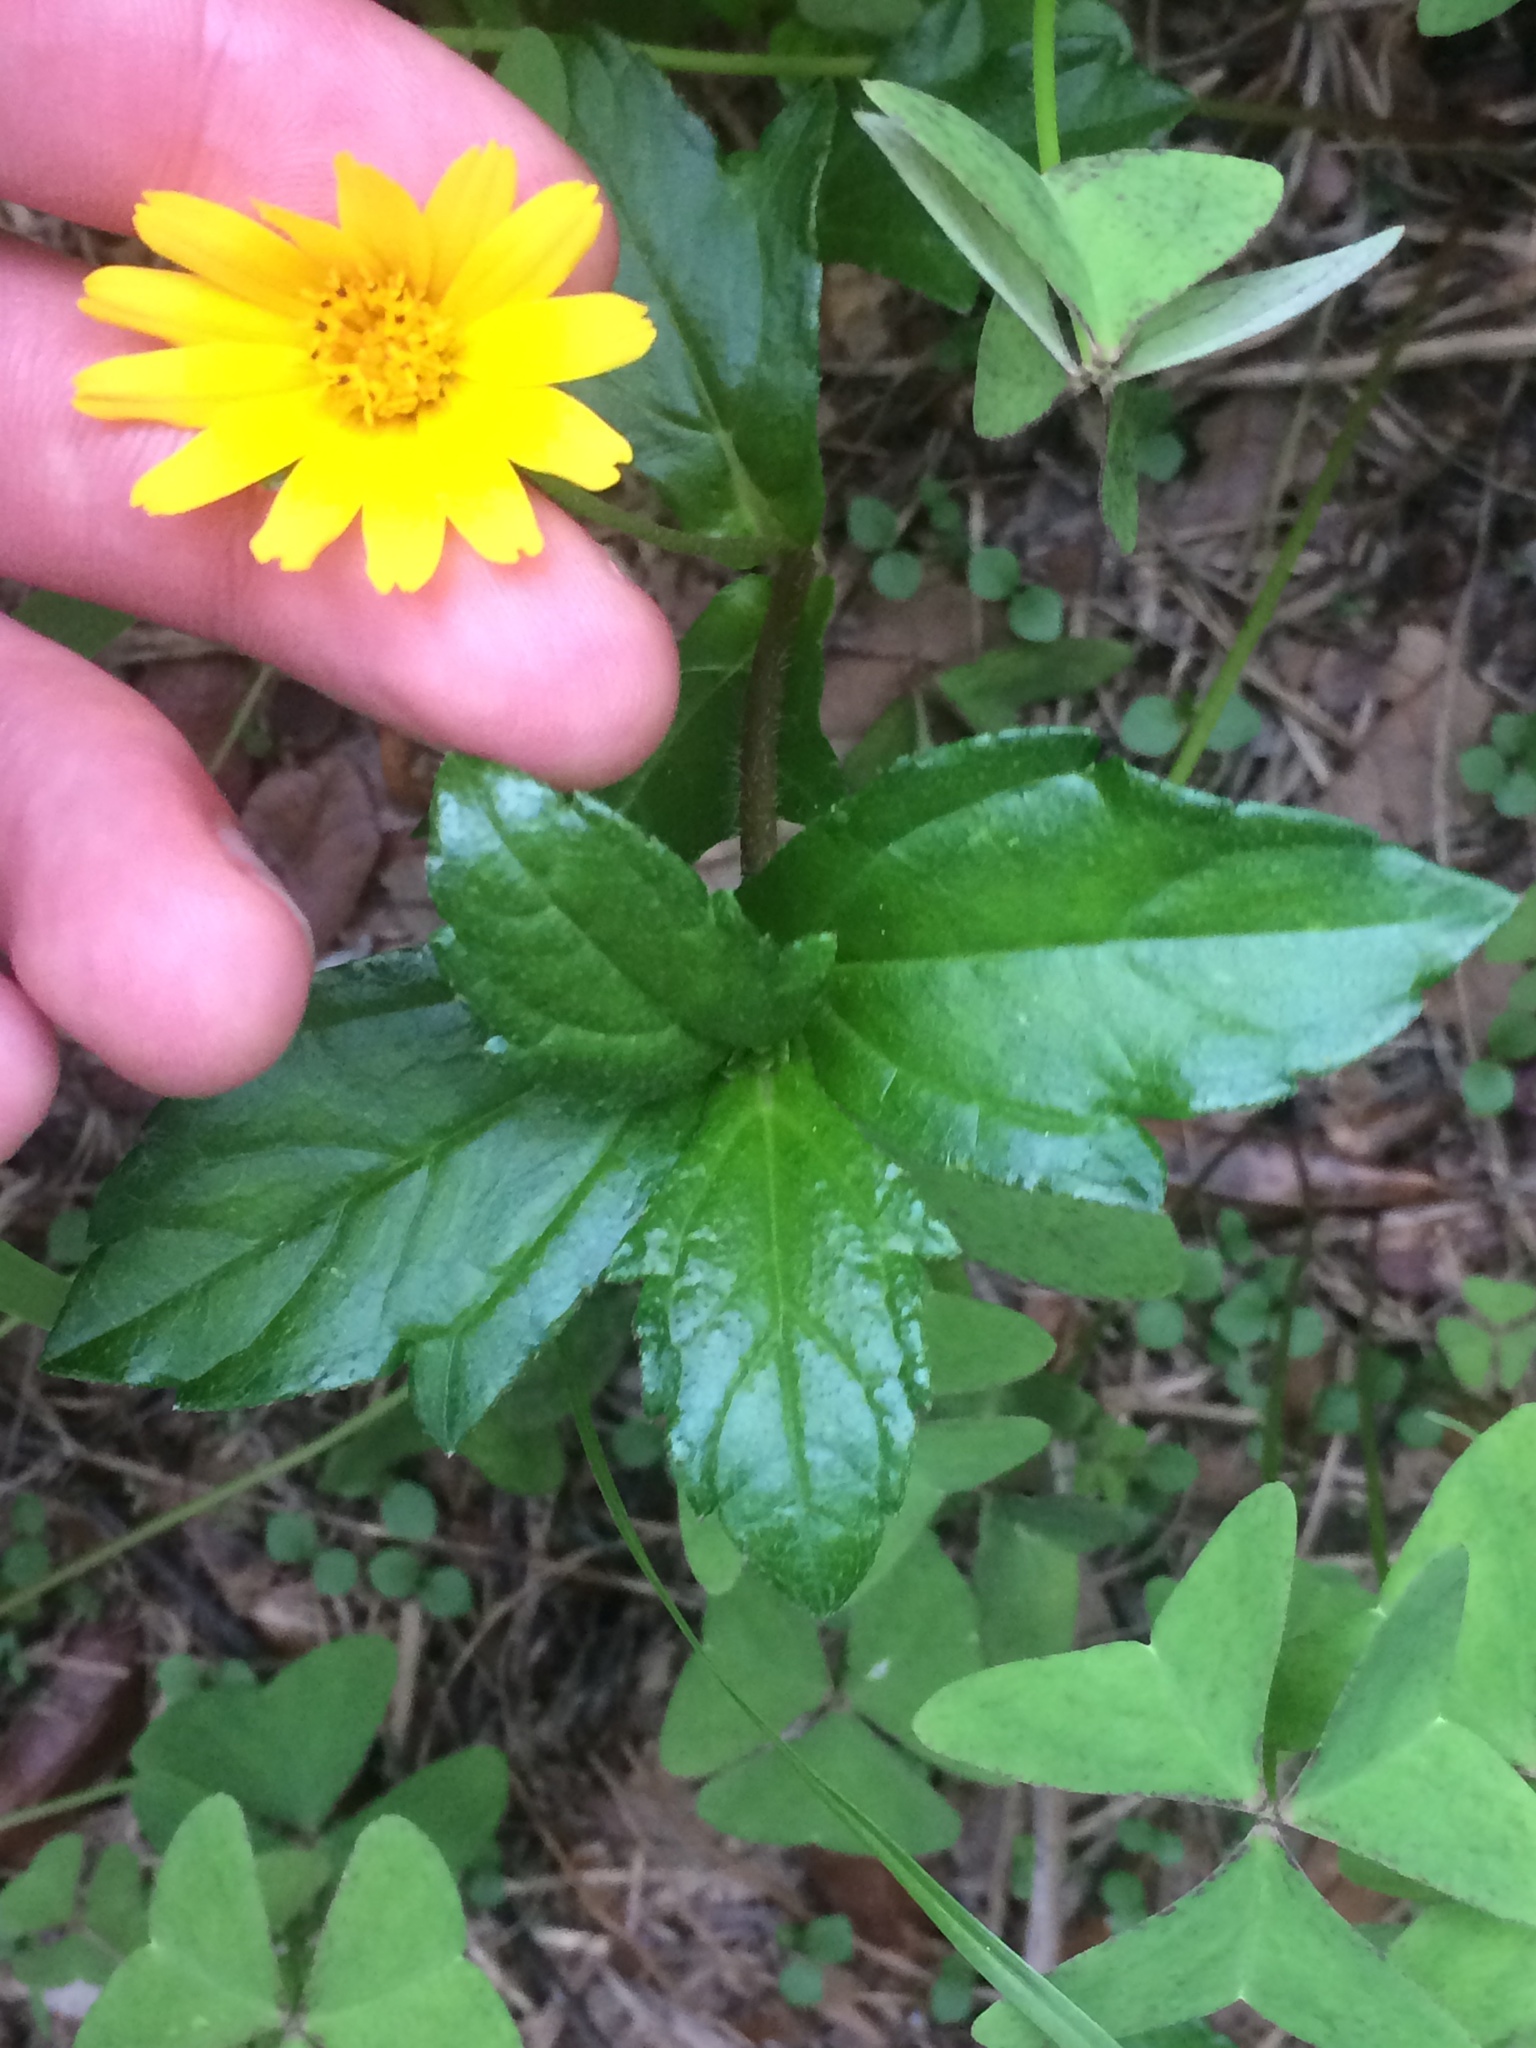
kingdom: Plantae
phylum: Tracheophyta
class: Magnoliopsida
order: Asterales
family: Asteraceae
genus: Sphagneticola
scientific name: Sphagneticola trilobata
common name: Bay biscayne creeping-oxeye
